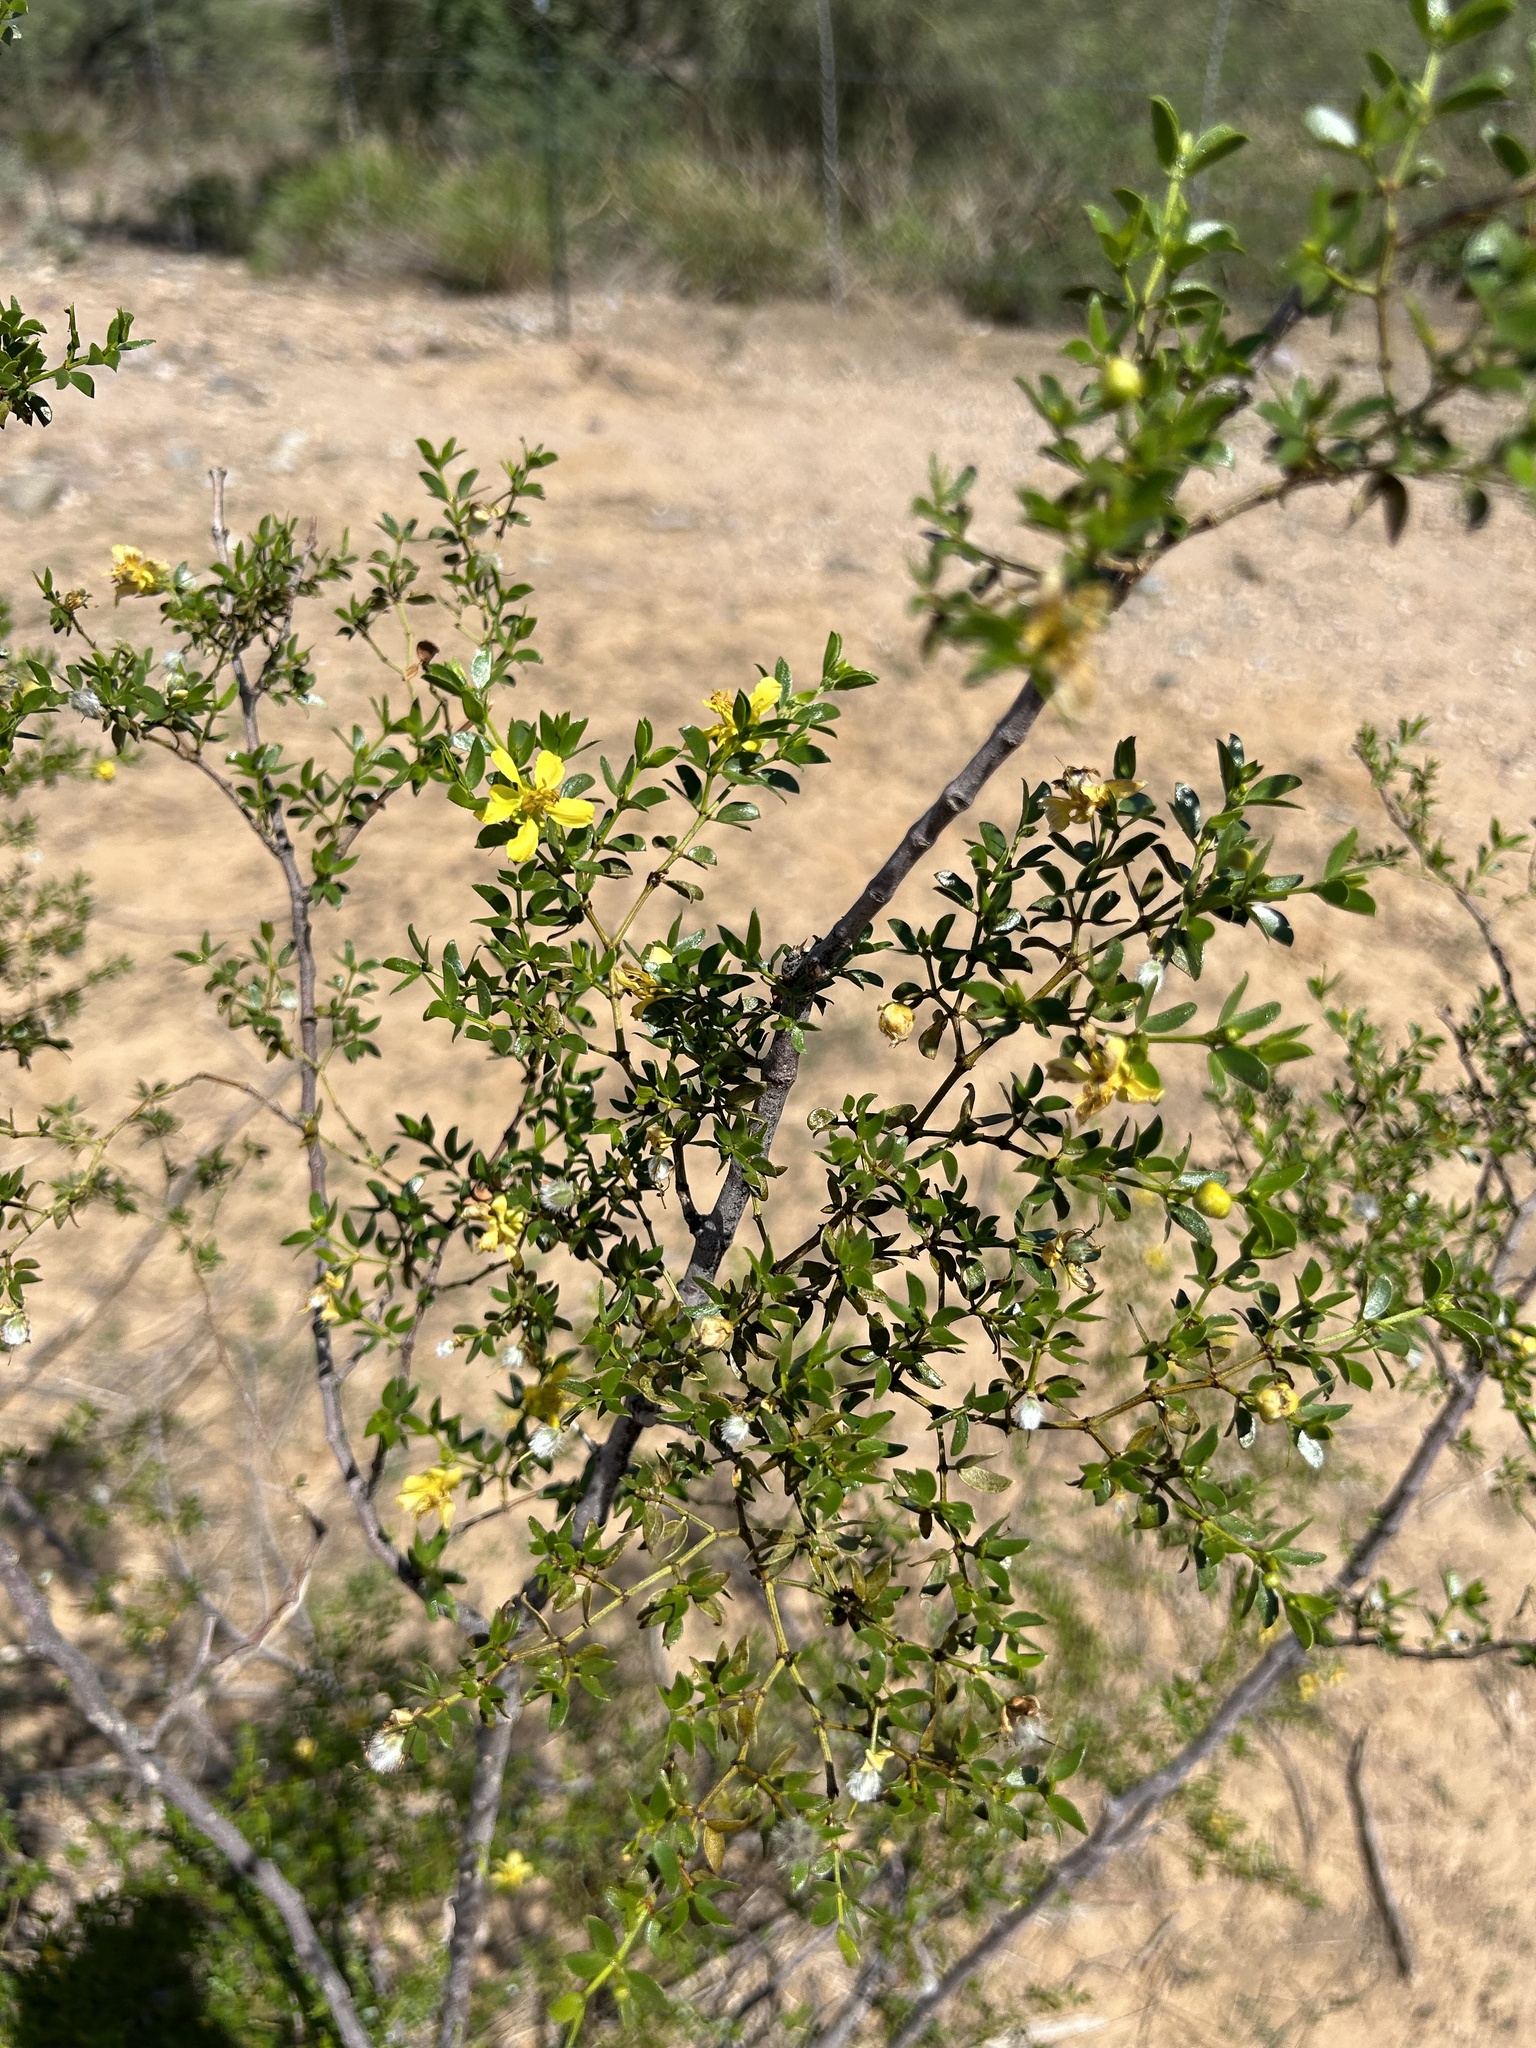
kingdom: Plantae
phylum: Tracheophyta
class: Magnoliopsida
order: Zygophyllales
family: Zygophyllaceae
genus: Larrea
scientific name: Larrea tridentata
